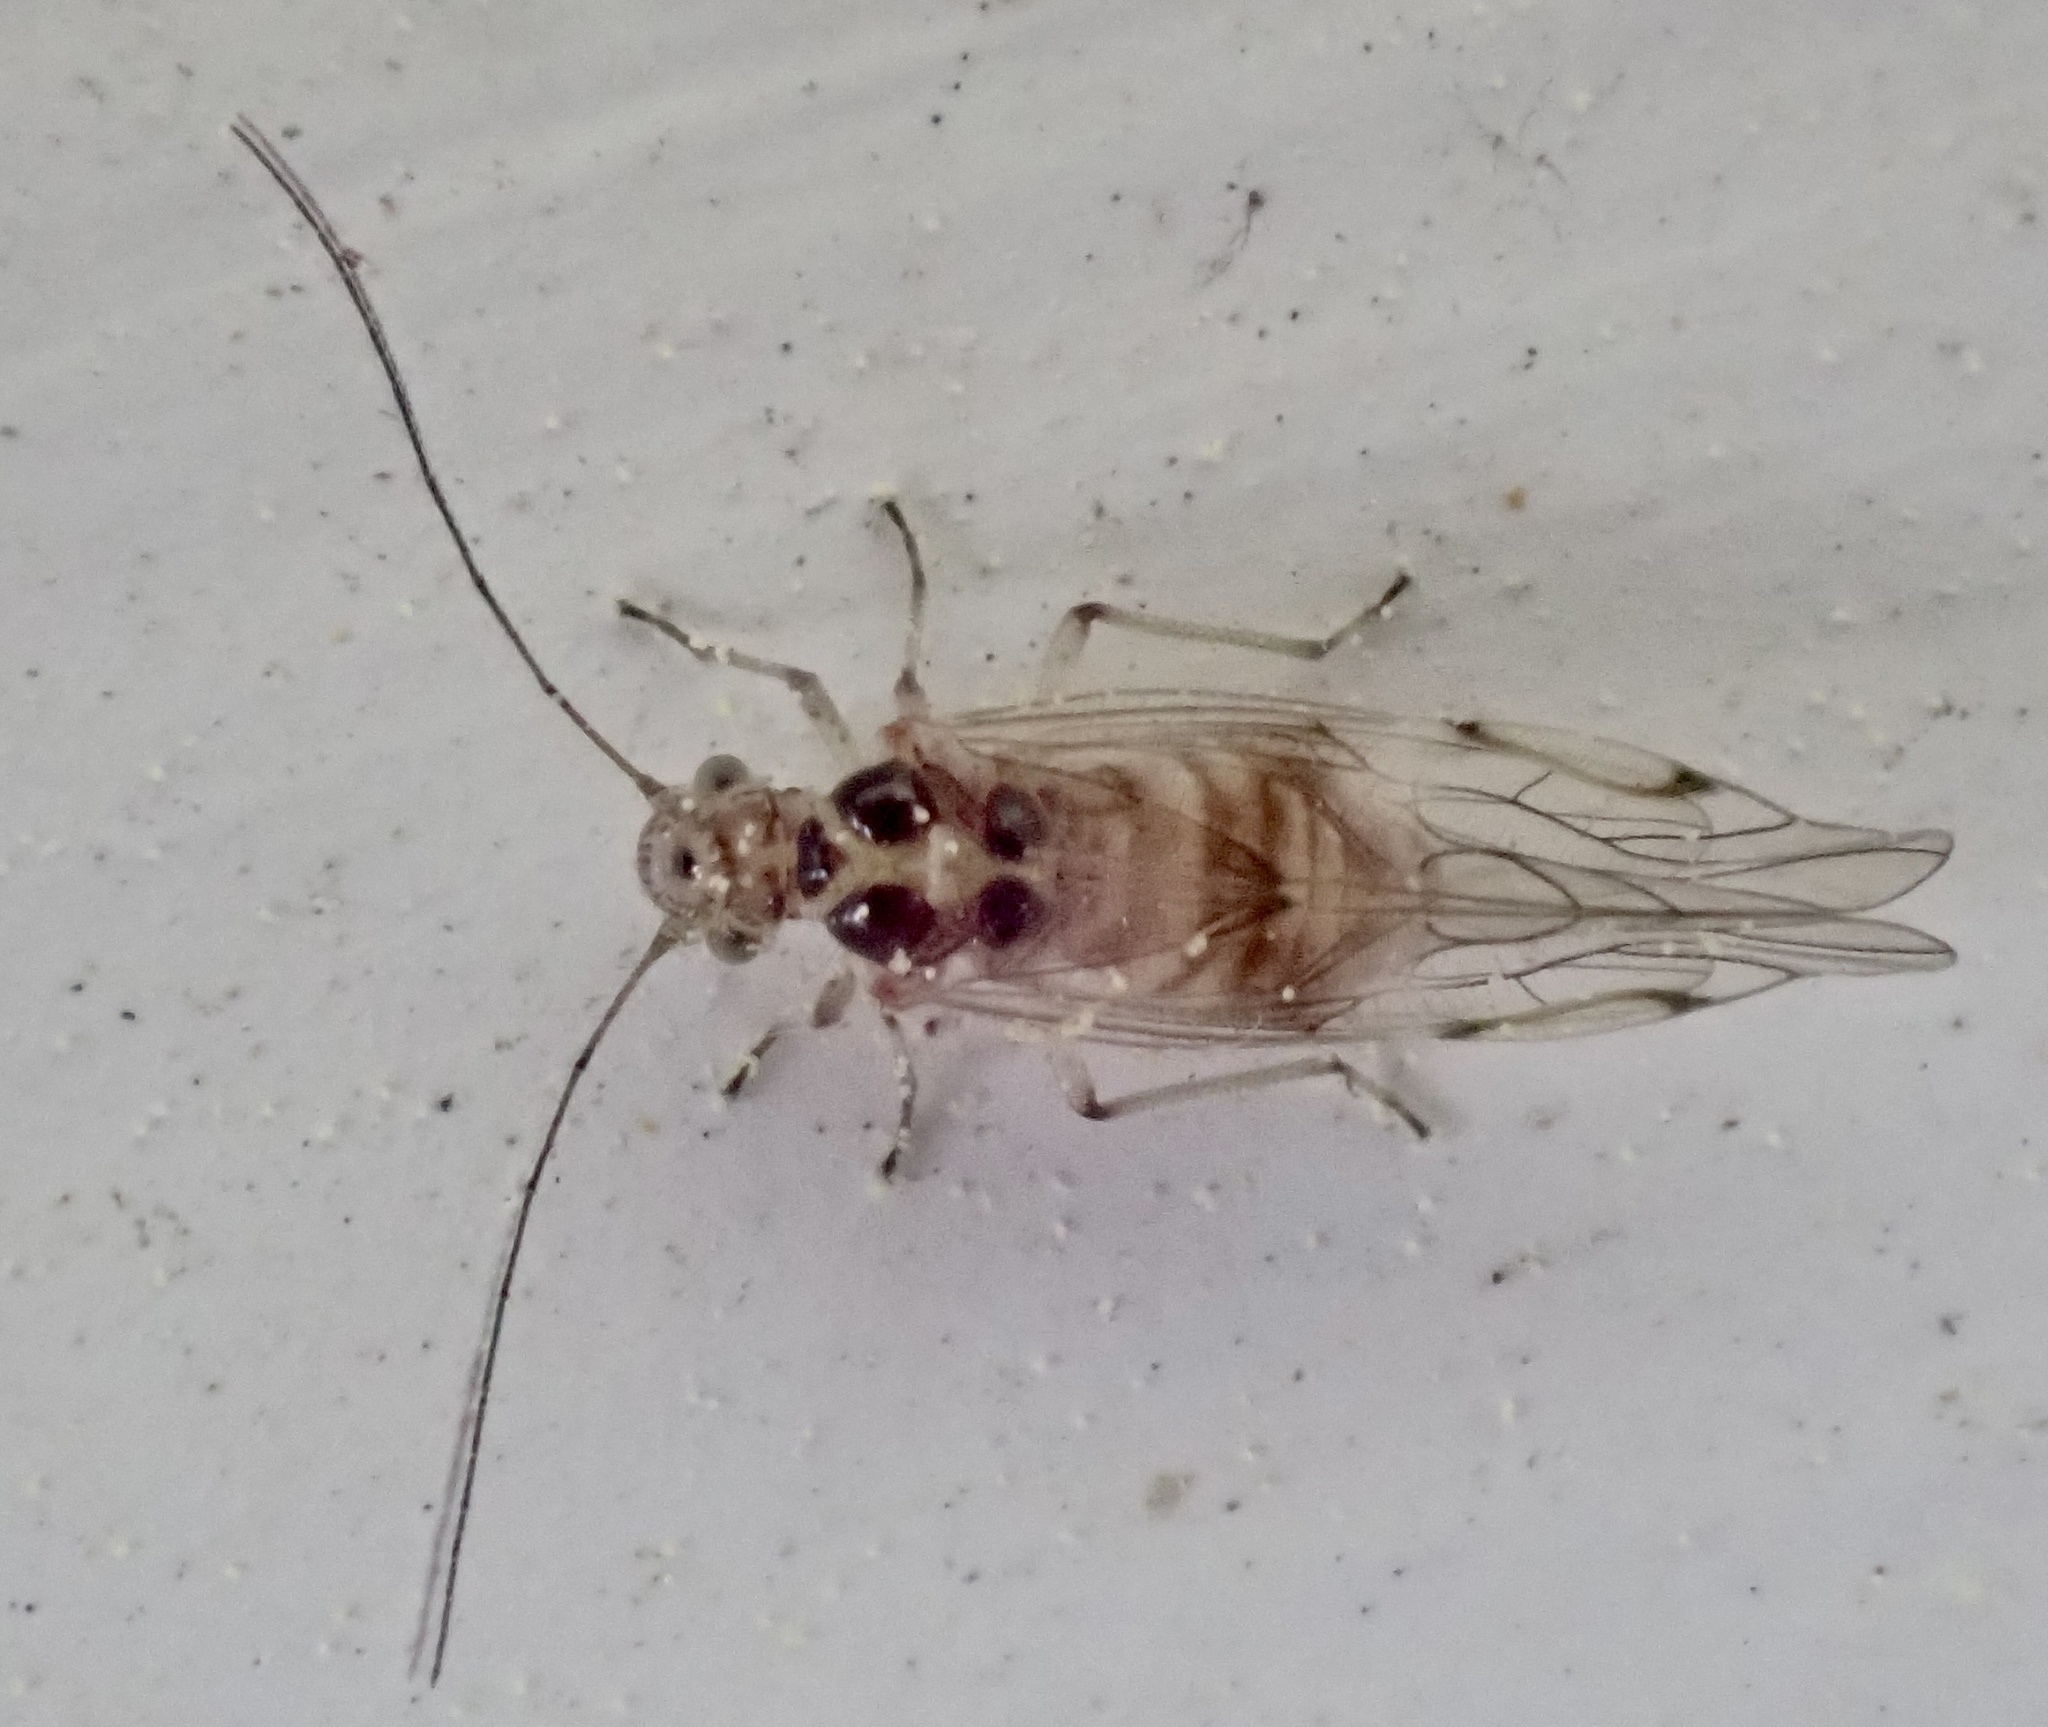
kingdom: Animalia
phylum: Arthropoda
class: Insecta
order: Psocodea
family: Dasydemellidae
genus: Teliapsocus
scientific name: Teliapsocus conterminus
